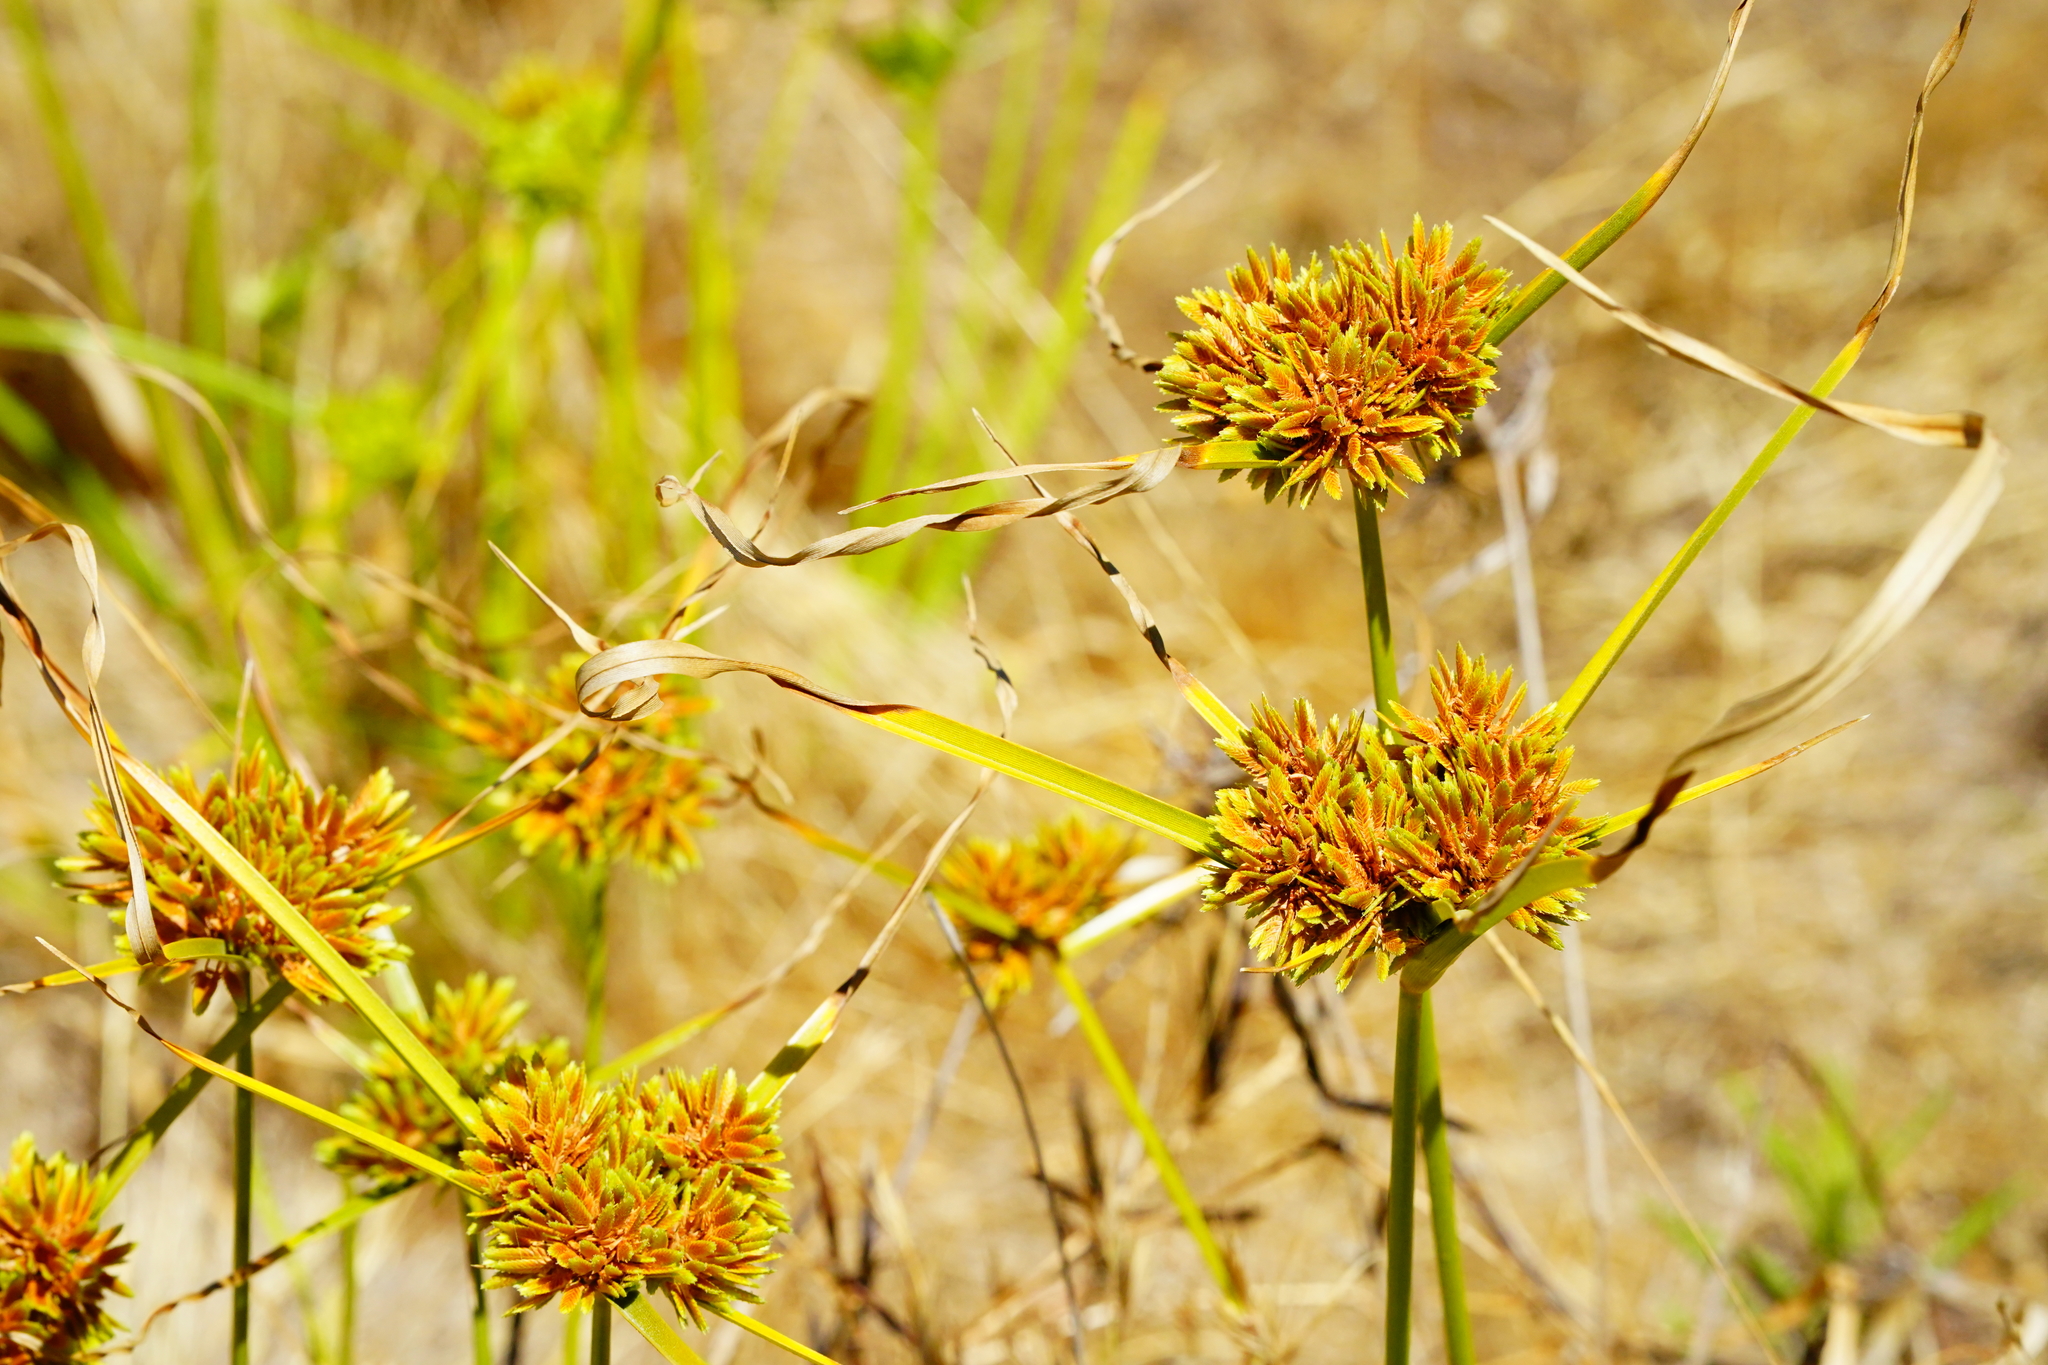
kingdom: Plantae
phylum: Tracheophyta
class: Liliopsida
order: Poales
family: Cyperaceae
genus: Cyperus
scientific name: Cyperus eragrostis
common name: Tall flatsedge
